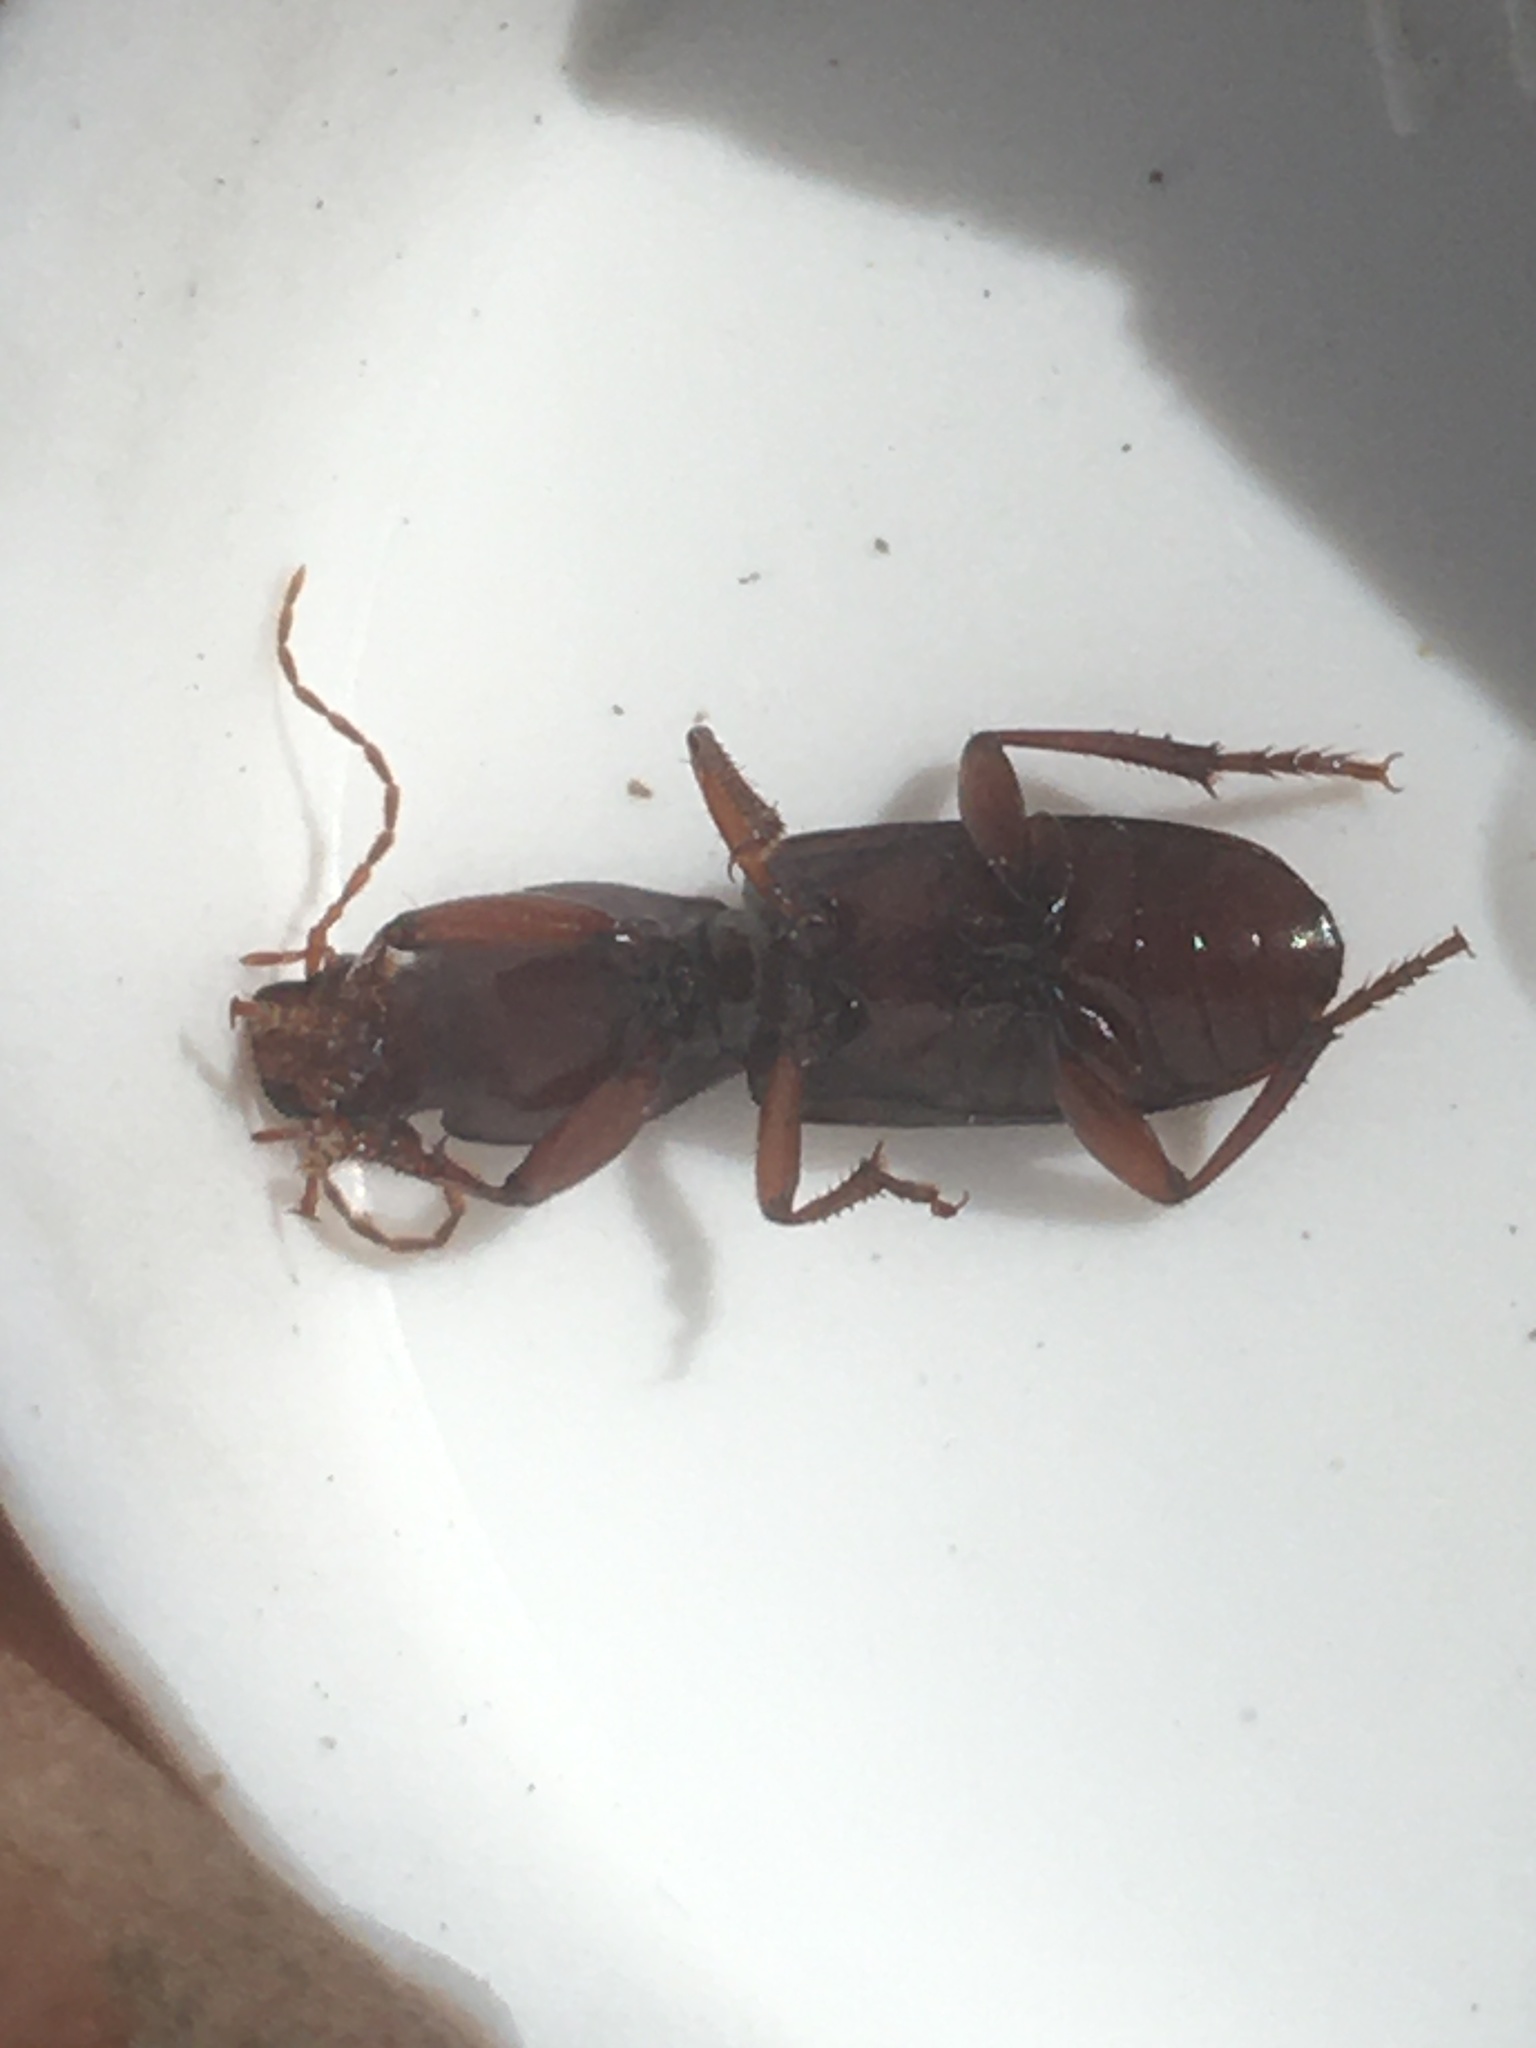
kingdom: Animalia
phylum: Arthropoda
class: Insecta
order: Coleoptera
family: Carabidae
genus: Stenomorphus
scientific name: Stenomorphus californicus
